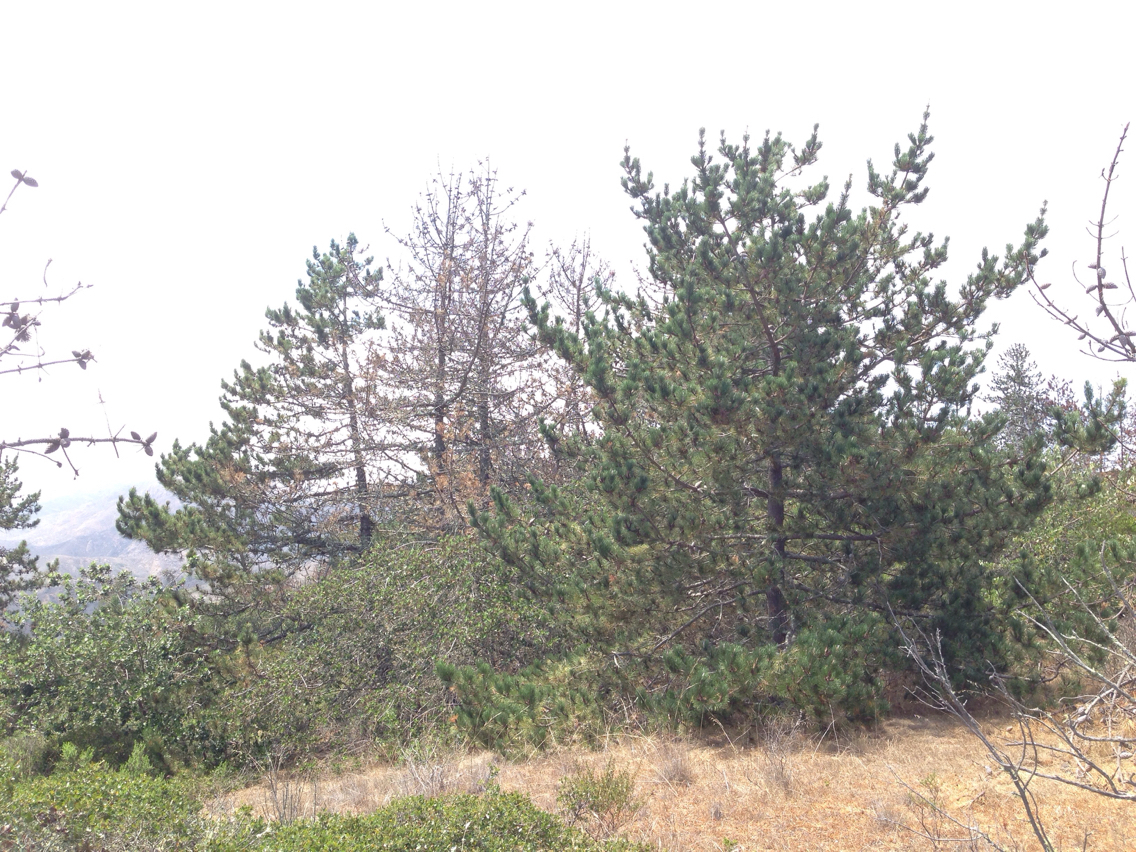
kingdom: Plantae
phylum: Tracheophyta
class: Pinopsida
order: Pinales
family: Pinaceae
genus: Pinus
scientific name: Pinus muricata
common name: Bishop pine
